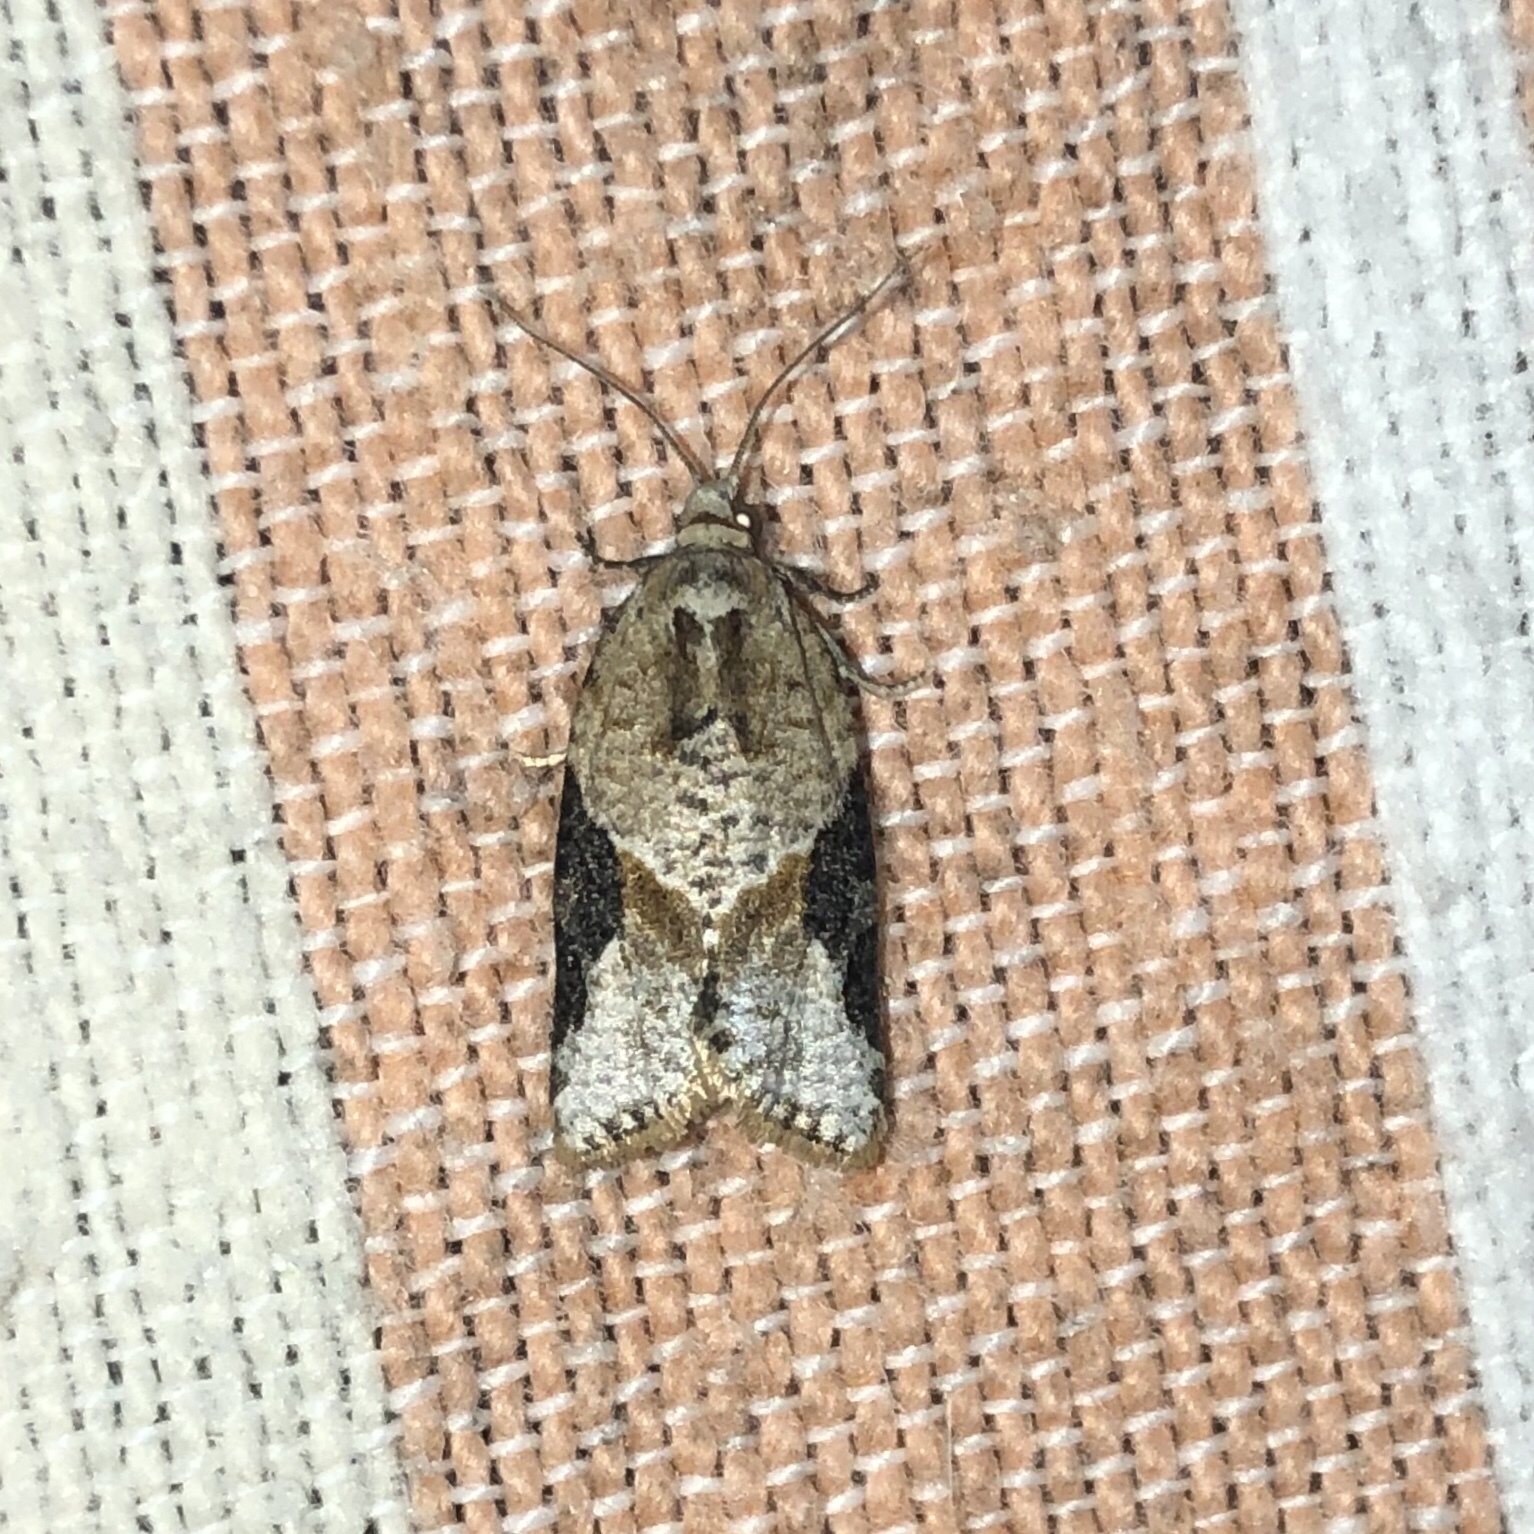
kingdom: Animalia
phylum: Arthropoda
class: Insecta
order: Lepidoptera
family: Tortricidae
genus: Argyrotaenia
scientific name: Argyrotaenia mariana
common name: Gray-banded leafroller moth
